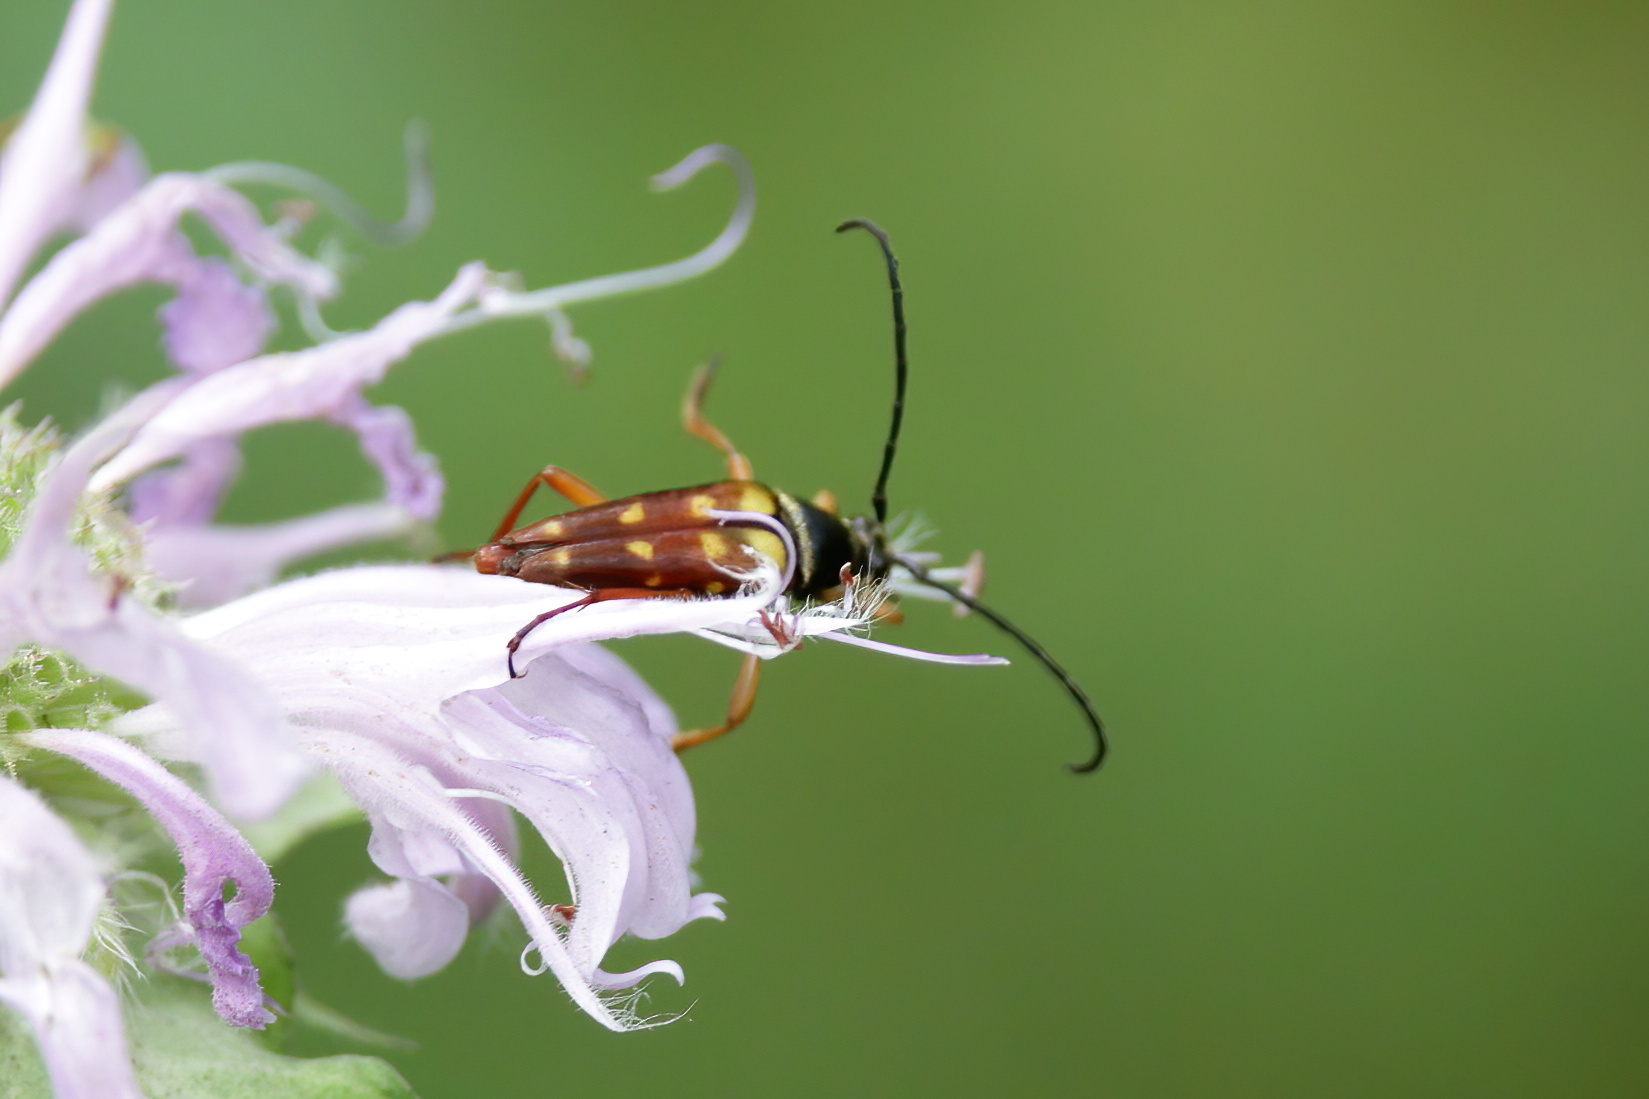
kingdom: Animalia
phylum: Arthropoda
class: Insecta
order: Coleoptera
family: Cerambycidae
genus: Typocerus
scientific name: Typocerus velutinus
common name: Banded longhorn beetle
